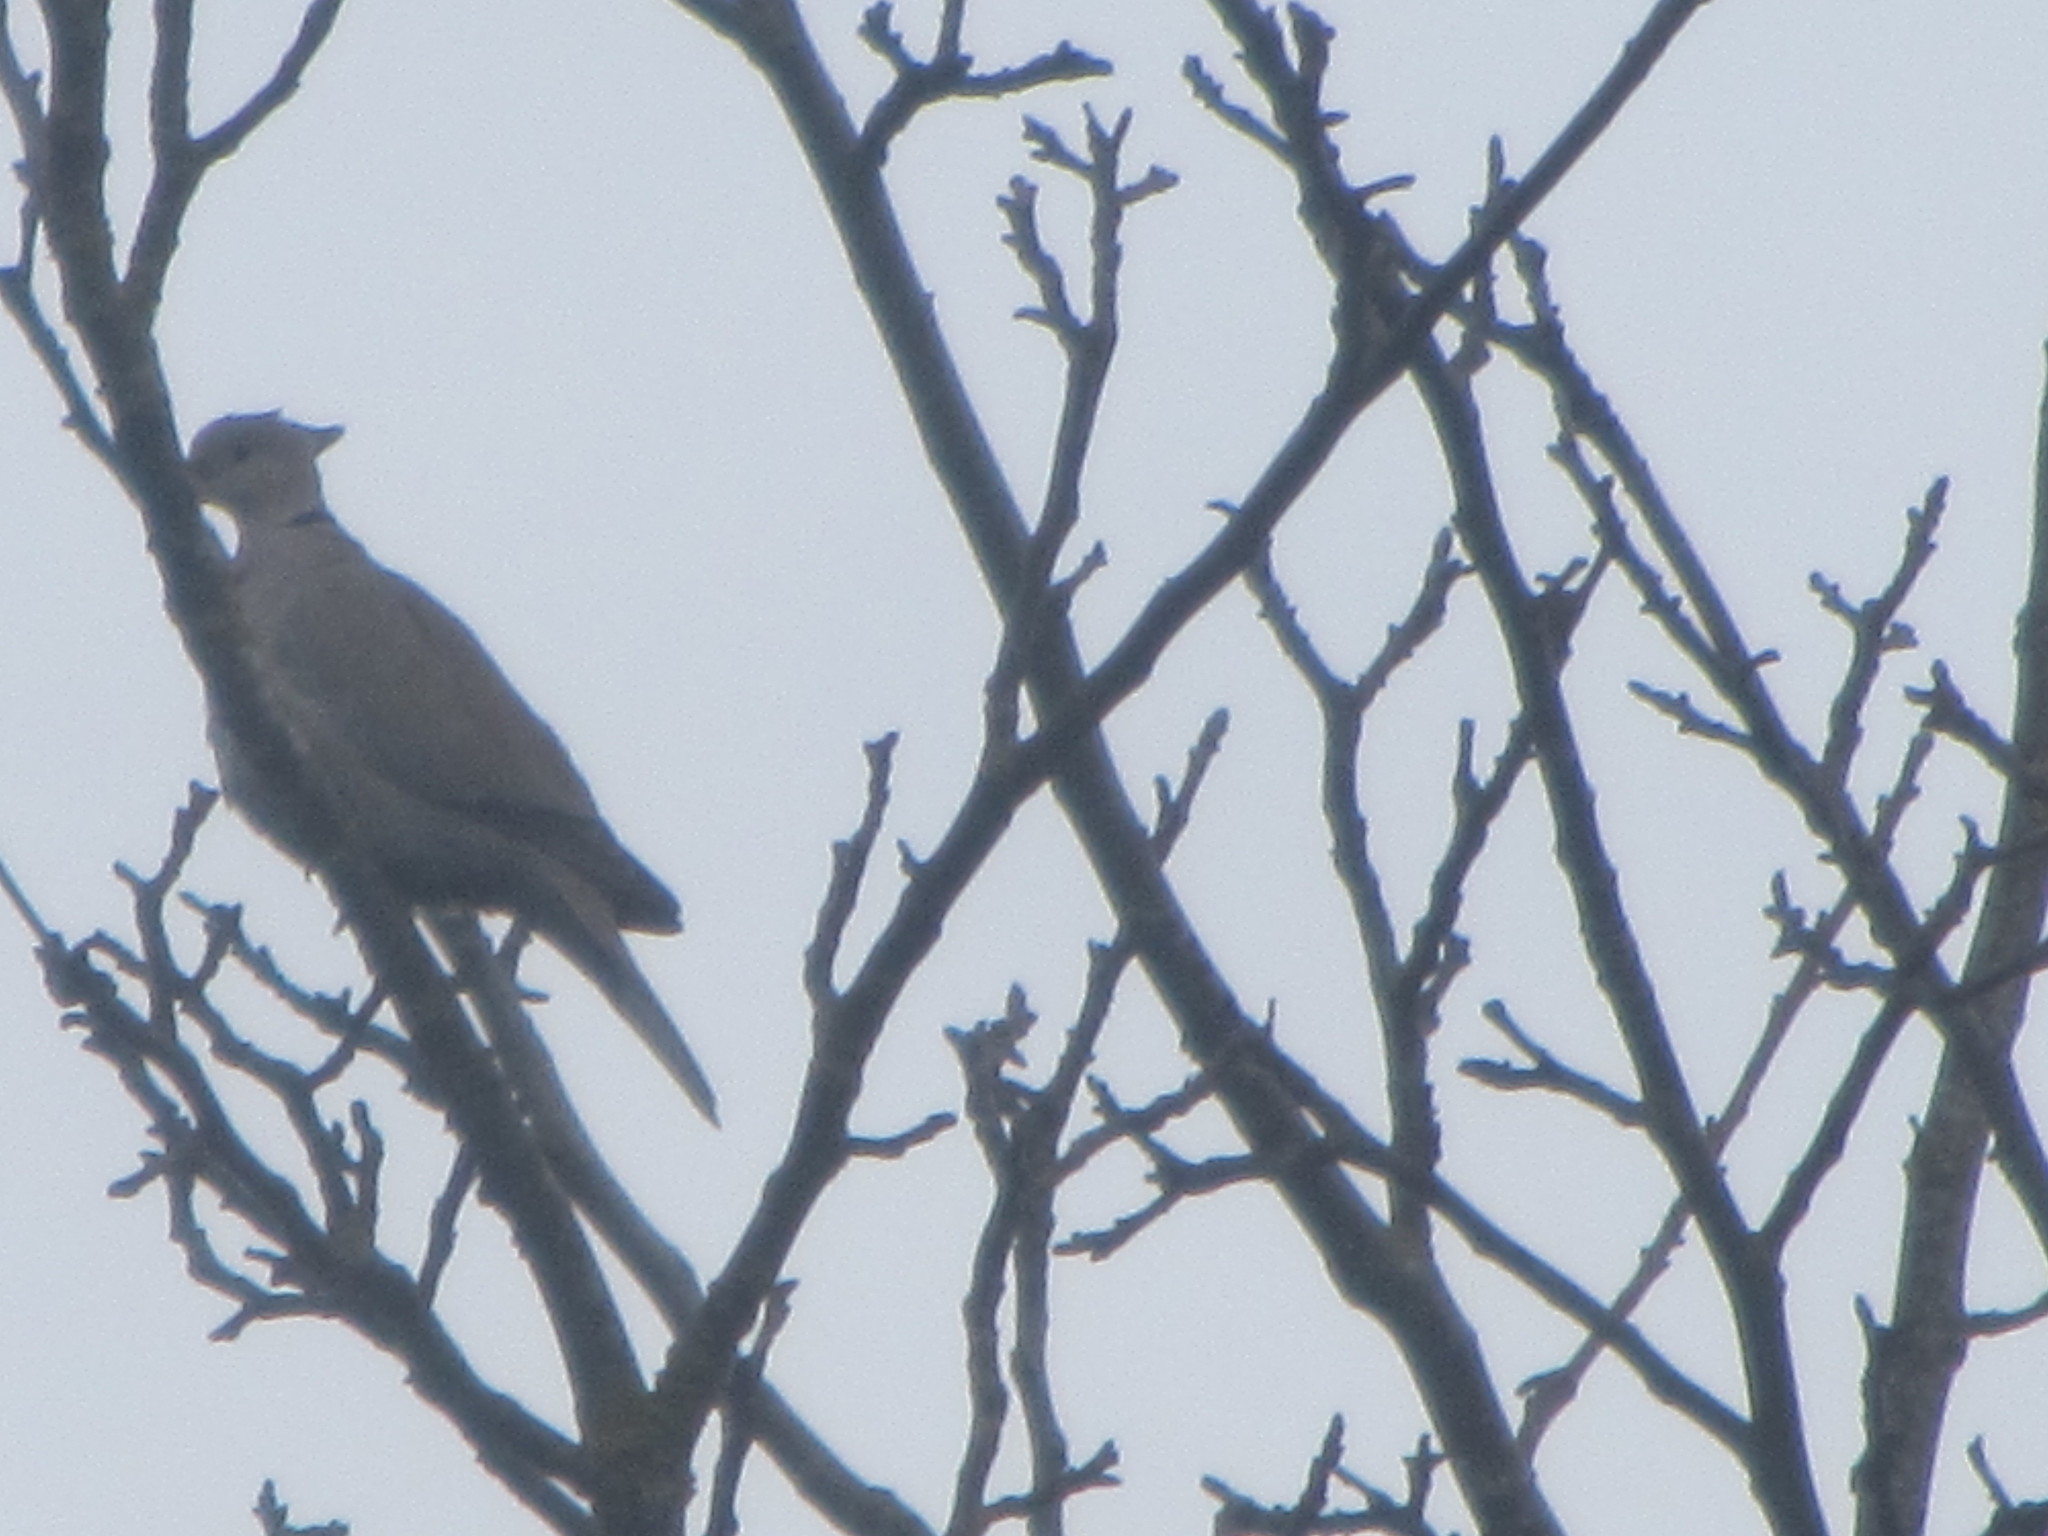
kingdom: Animalia
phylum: Chordata
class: Aves
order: Columbiformes
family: Columbidae
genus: Streptopelia
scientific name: Streptopelia decaocto
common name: Eurasian collared dove
